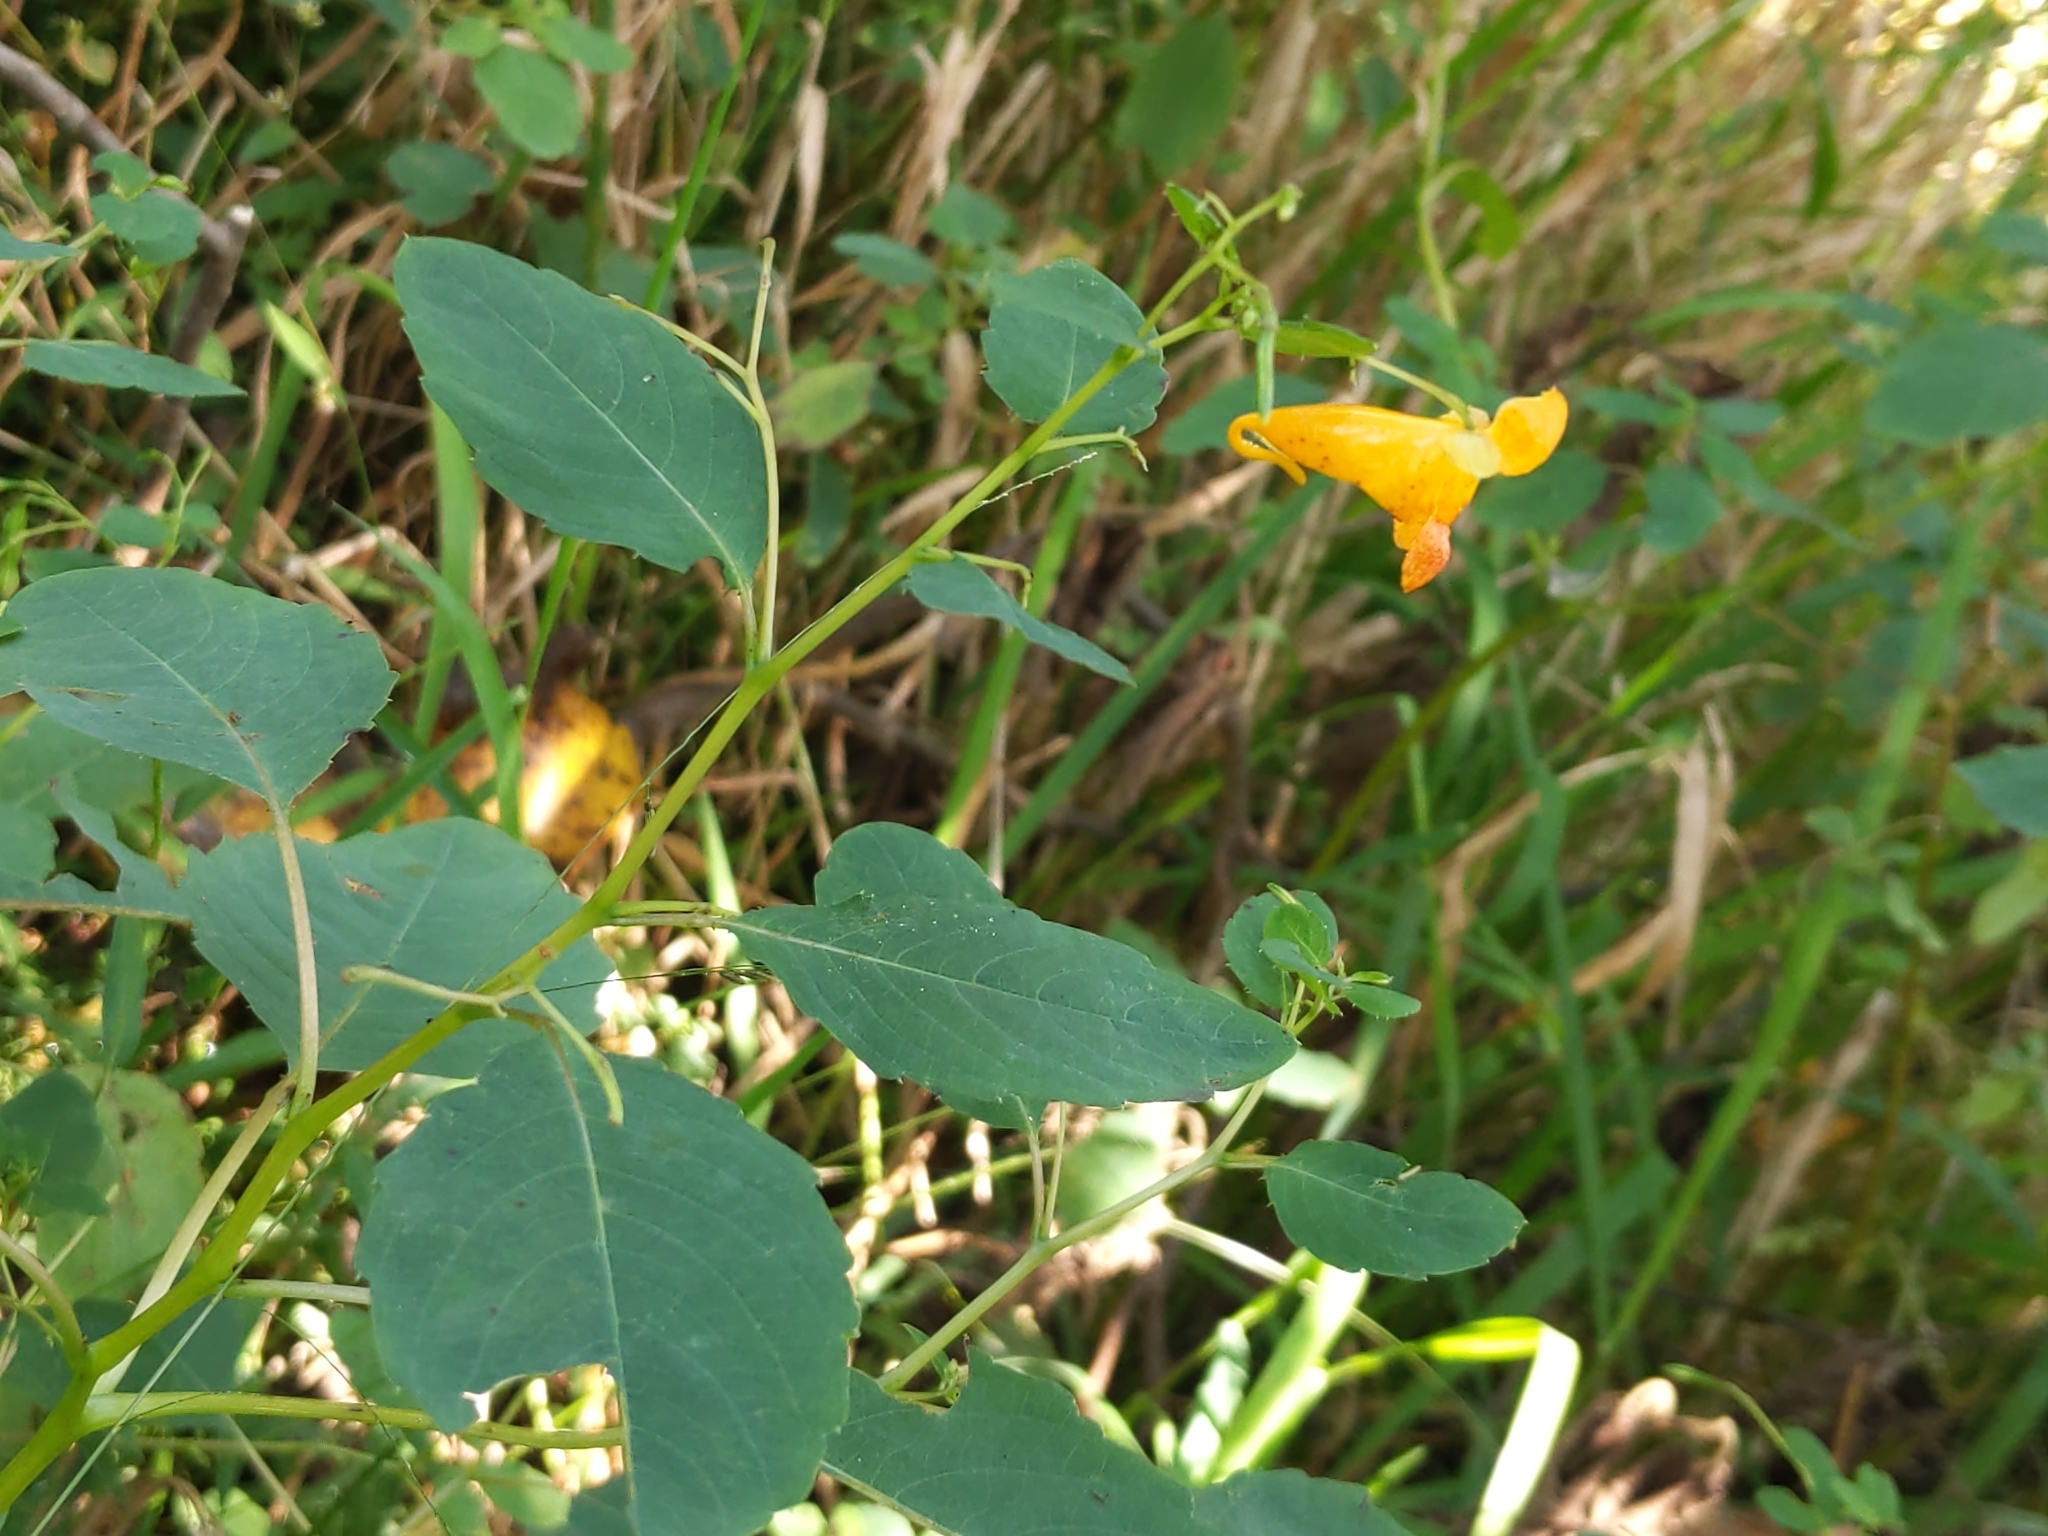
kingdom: Plantae
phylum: Tracheophyta
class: Magnoliopsida
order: Ericales
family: Balsaminaceae
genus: Impatiens
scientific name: Impatiens capensis
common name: Orange balsam
